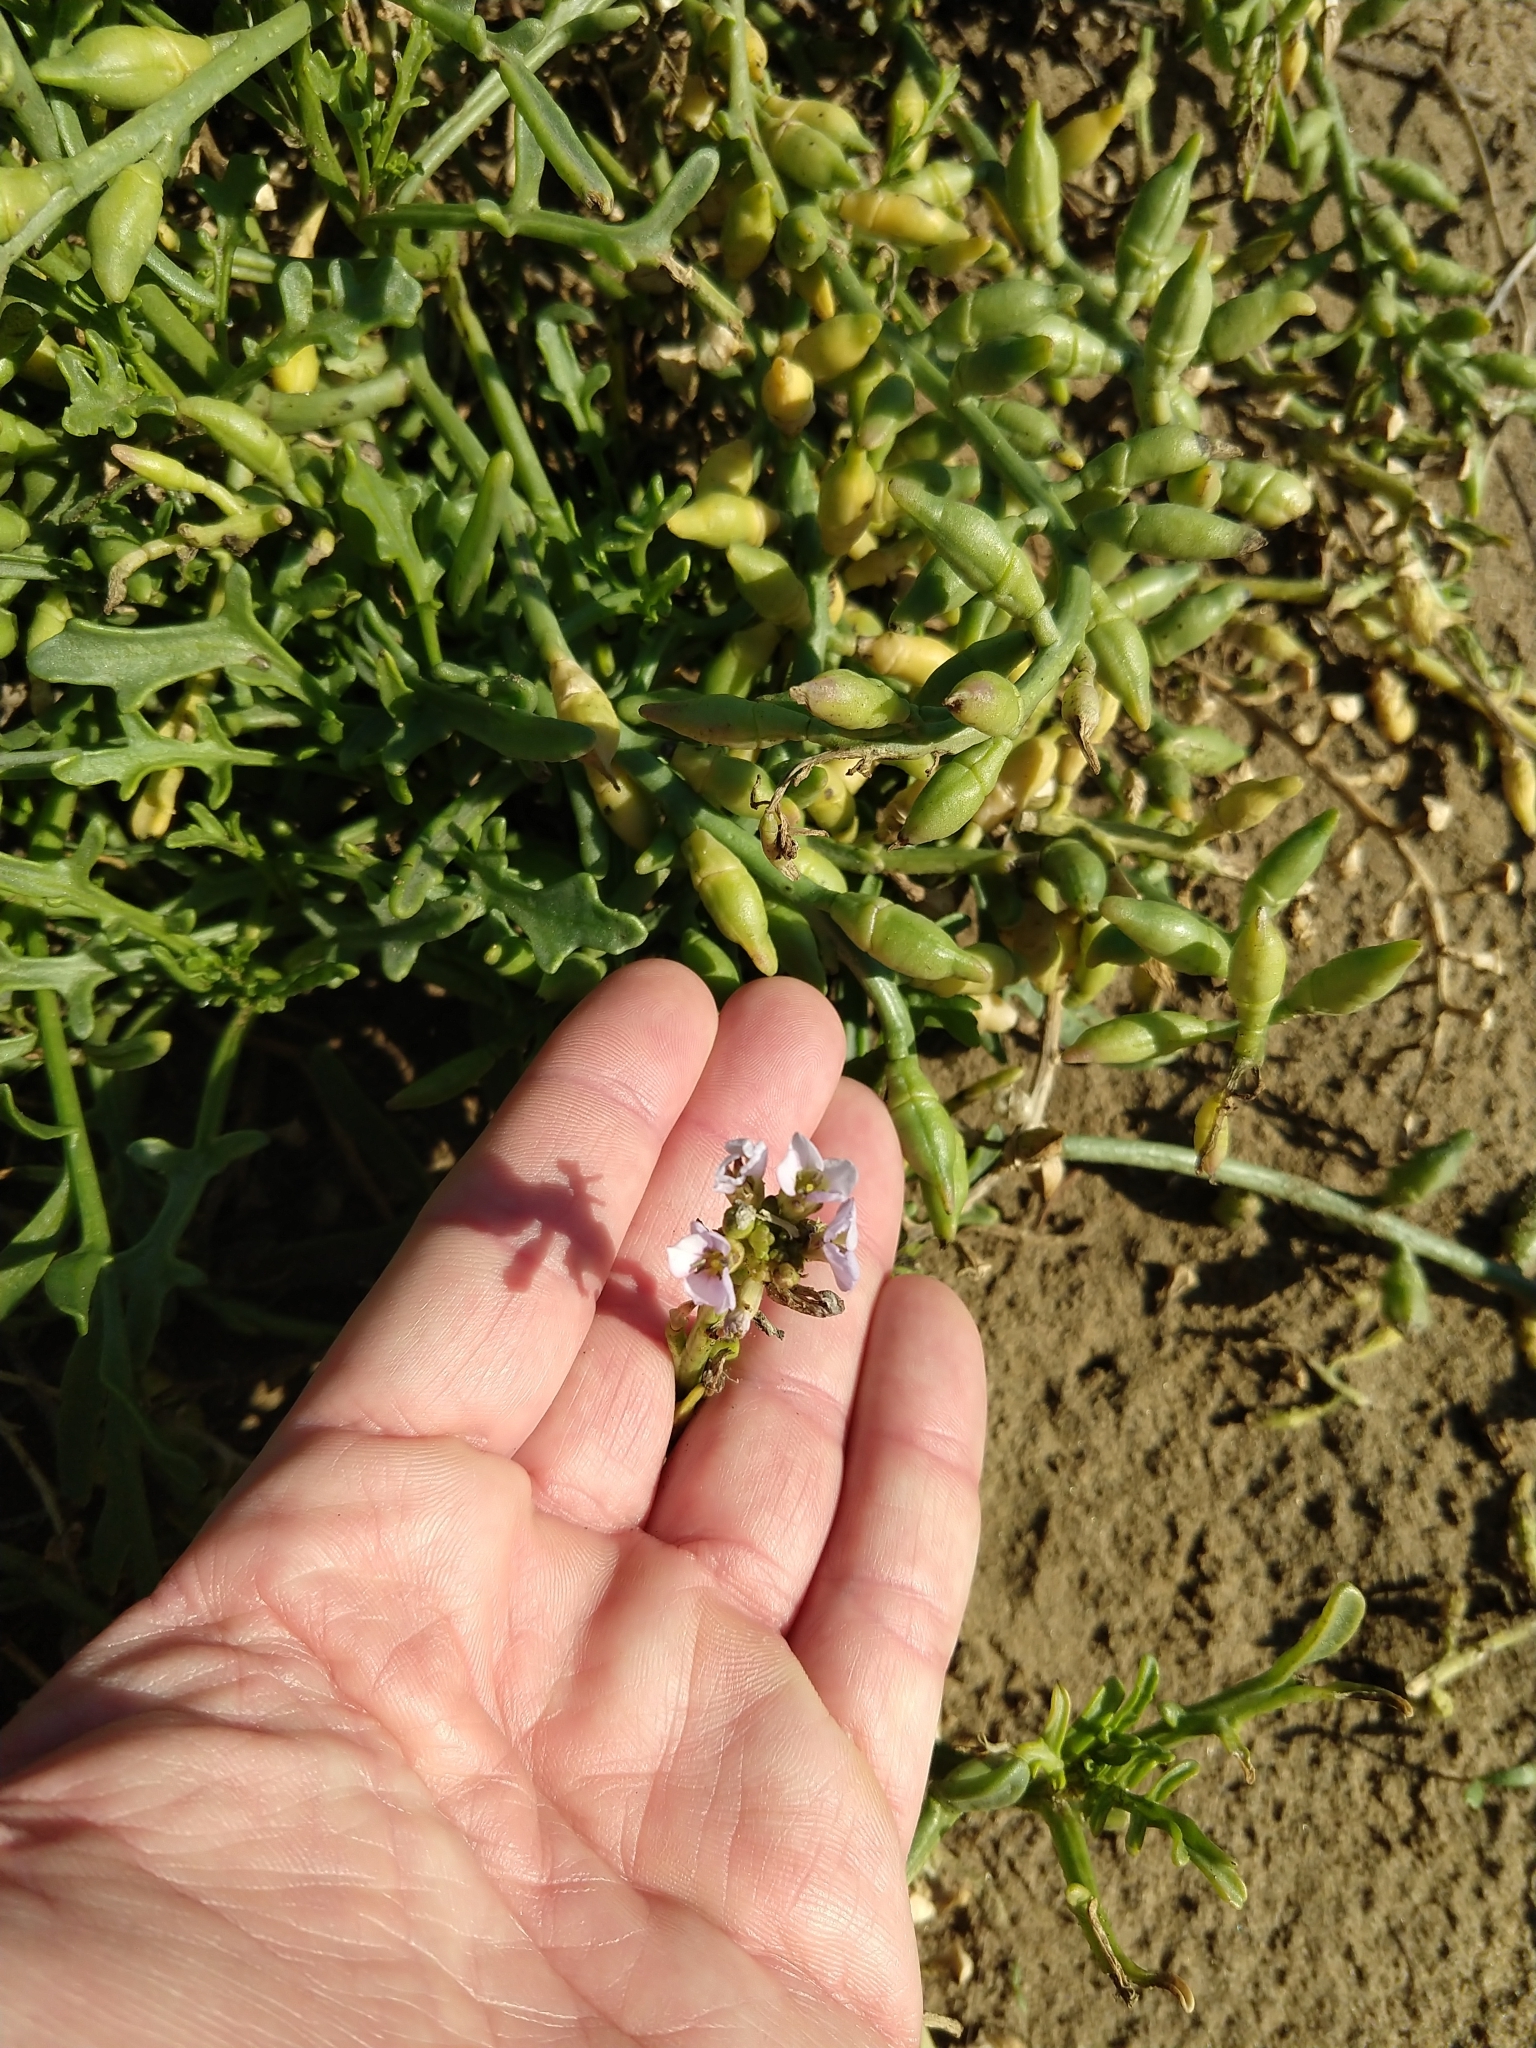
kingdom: Plantae
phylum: Tracheophyta
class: Magnoliopsida
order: Brassicales
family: Brassicaceae
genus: Cakile
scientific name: Cakile maritima
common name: Sea rocket
